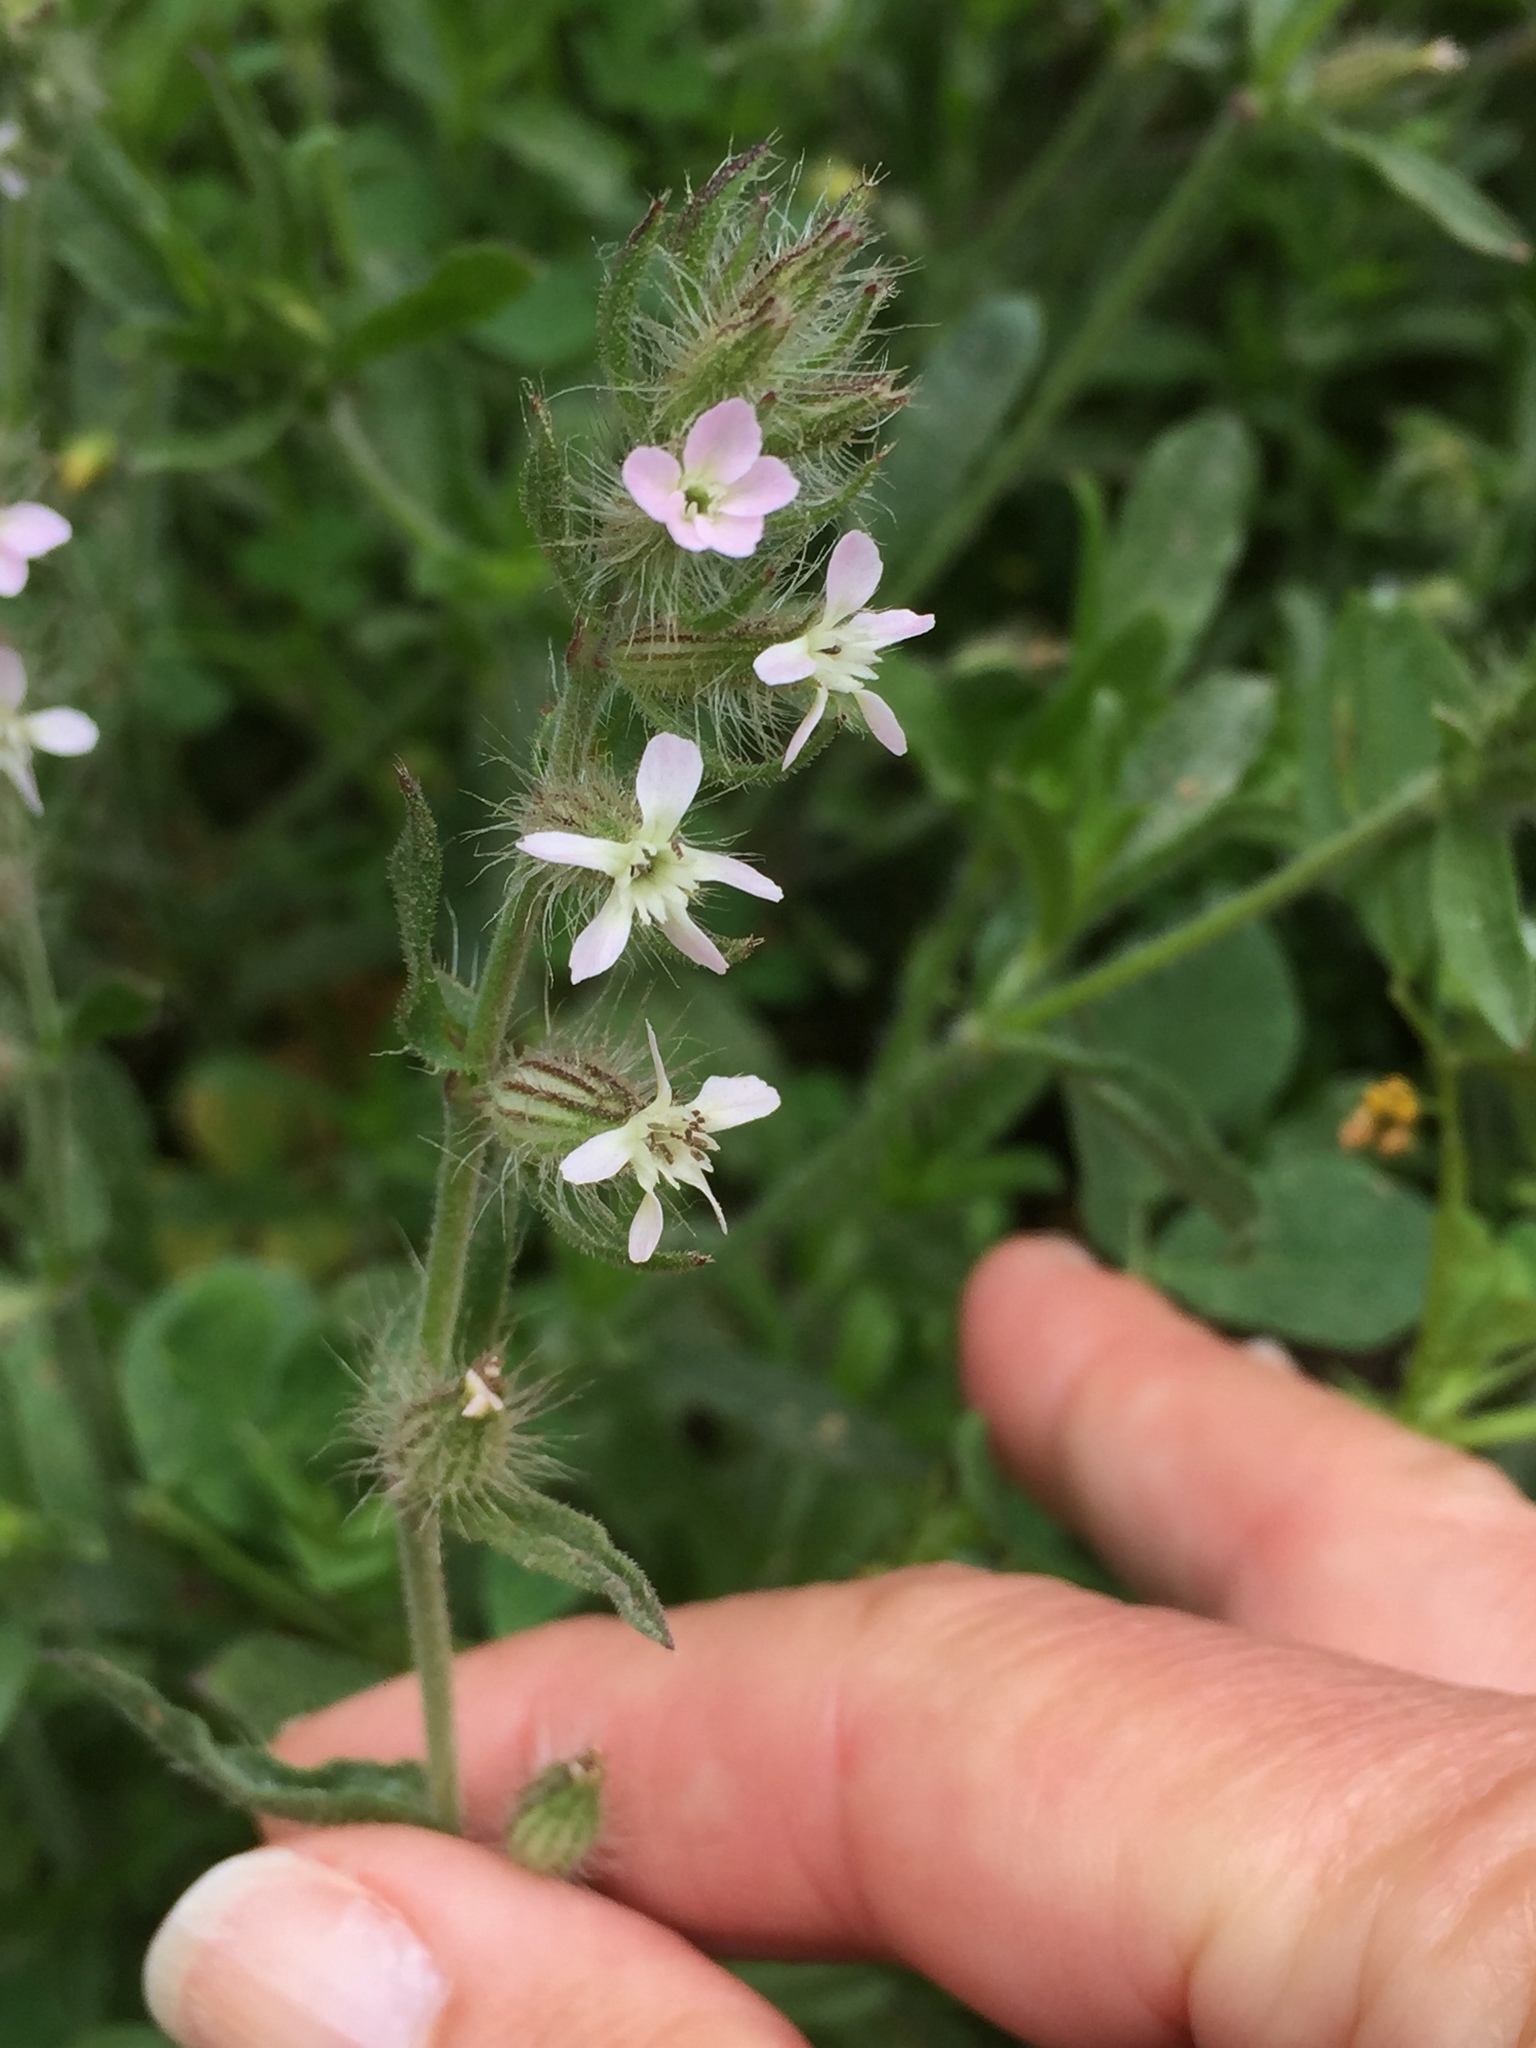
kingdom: Plantae
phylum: Tracheophyta
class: Magnoliopsida
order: Caryophyllales
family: Caryophyllaceae
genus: Silene
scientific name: Silene gallica
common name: Small-flowered catchfly
